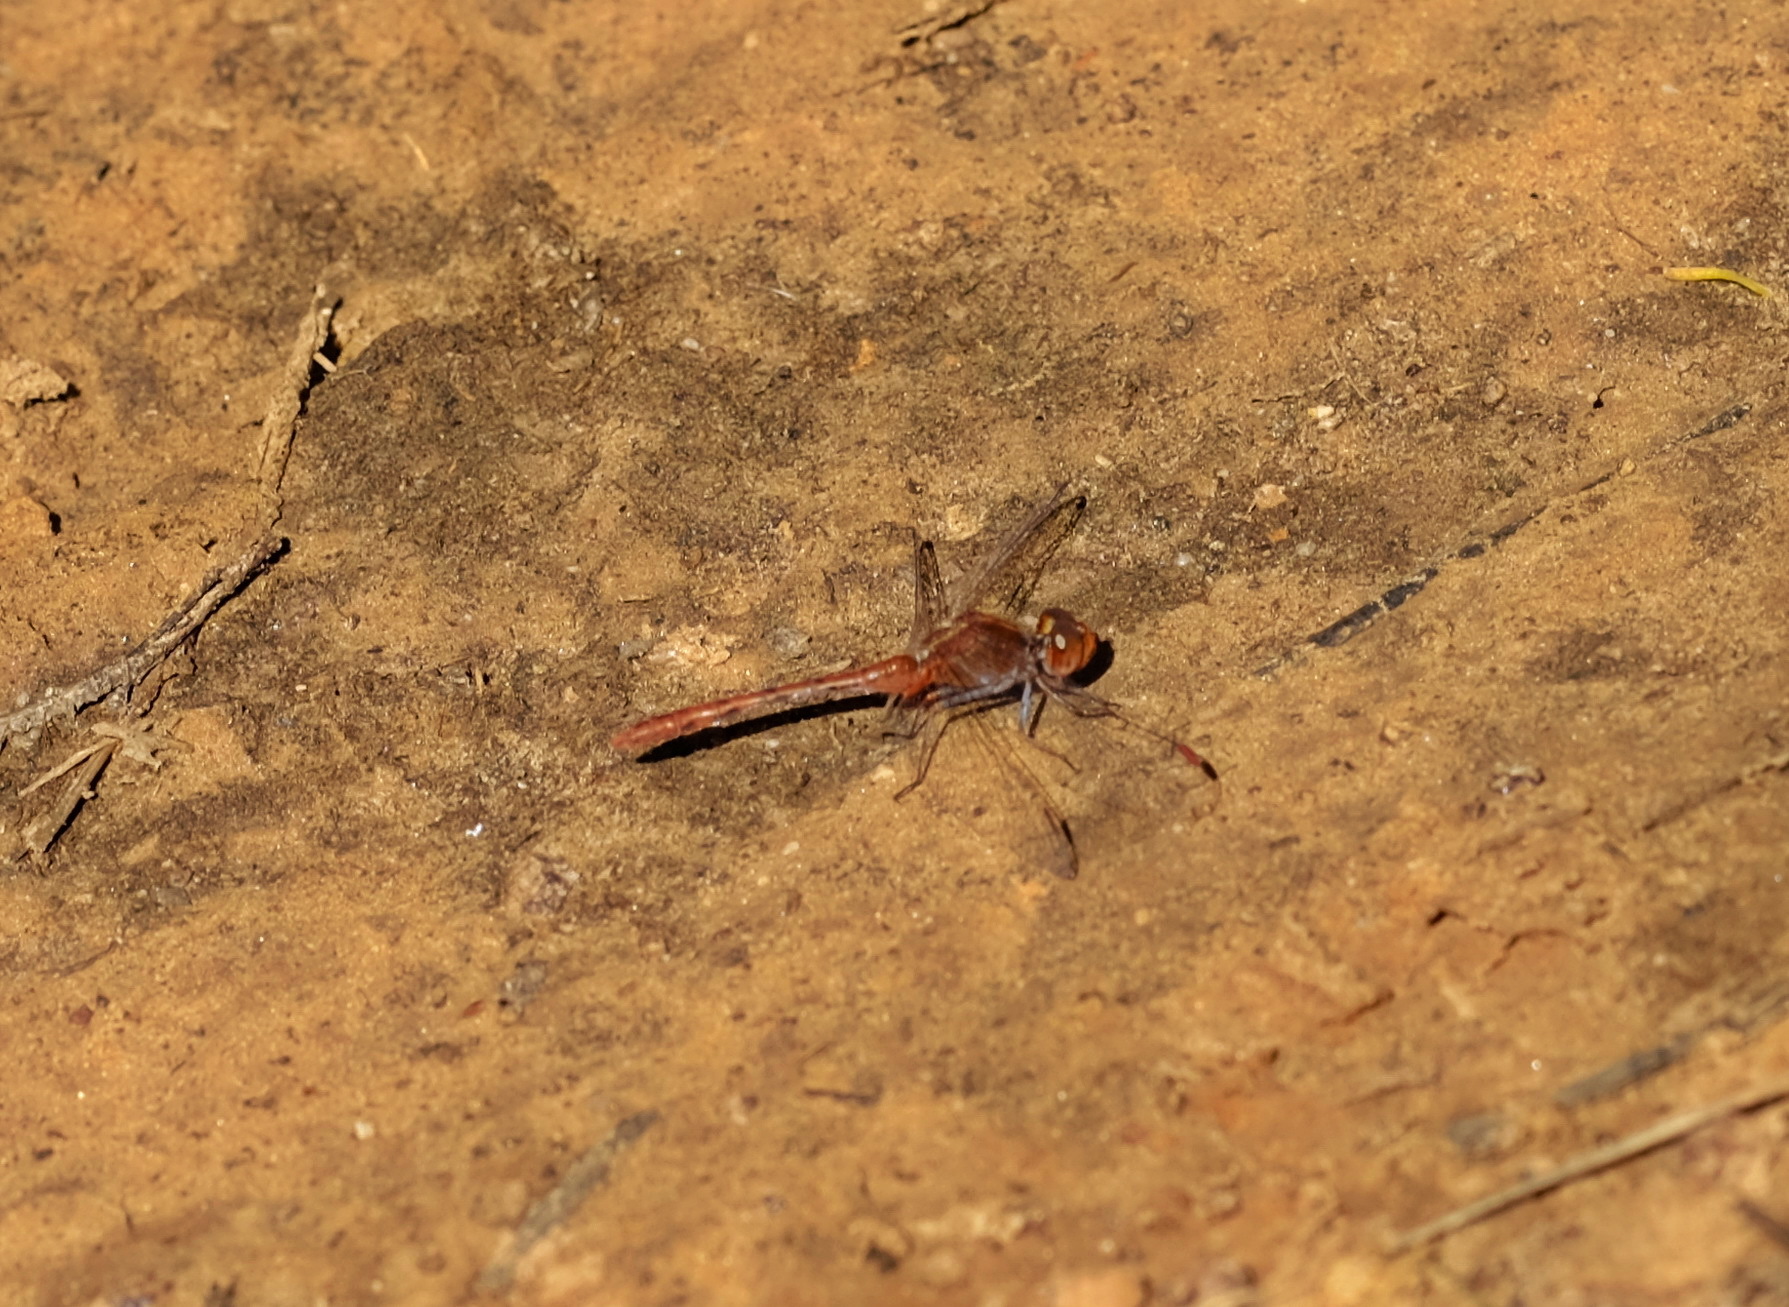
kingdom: Animalia
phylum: Arthropoda
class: Insecta
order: Odonata
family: Libellulidae
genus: Diplacodes
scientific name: Diplacodes bipunctata
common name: Red percher dragonfly
